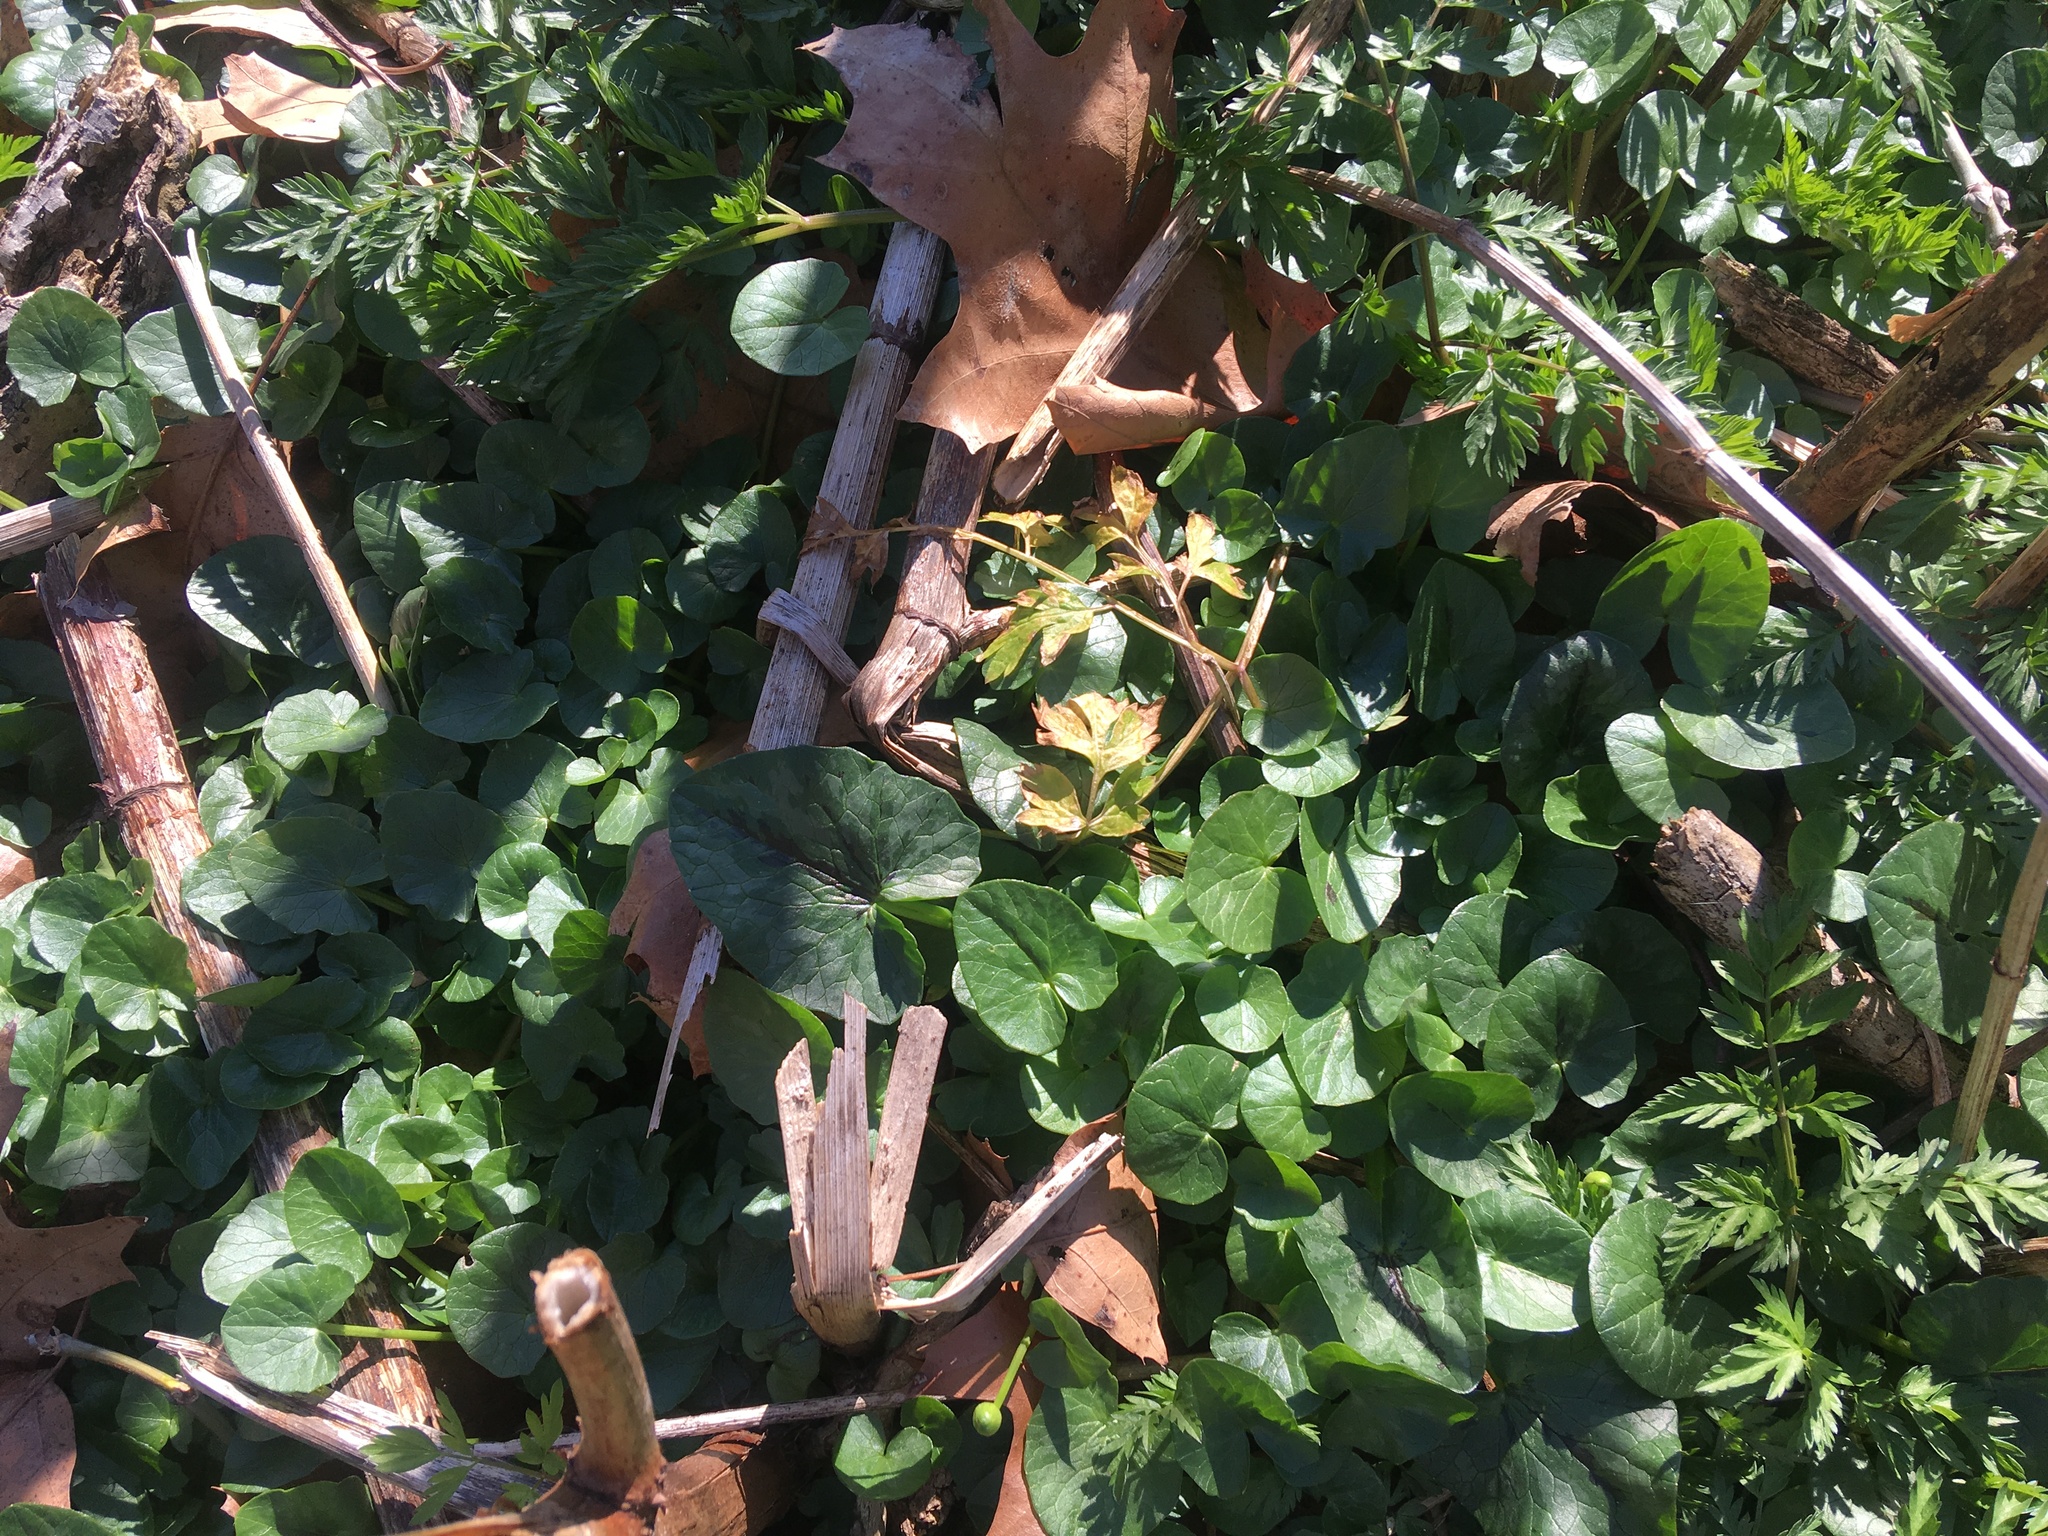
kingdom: Plantae
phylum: Tracheophyta
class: Magnoliopsida
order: Ranunculales
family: Ranunculaceae
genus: Ficaria
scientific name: Ficaria verna
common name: Lesser celandine
